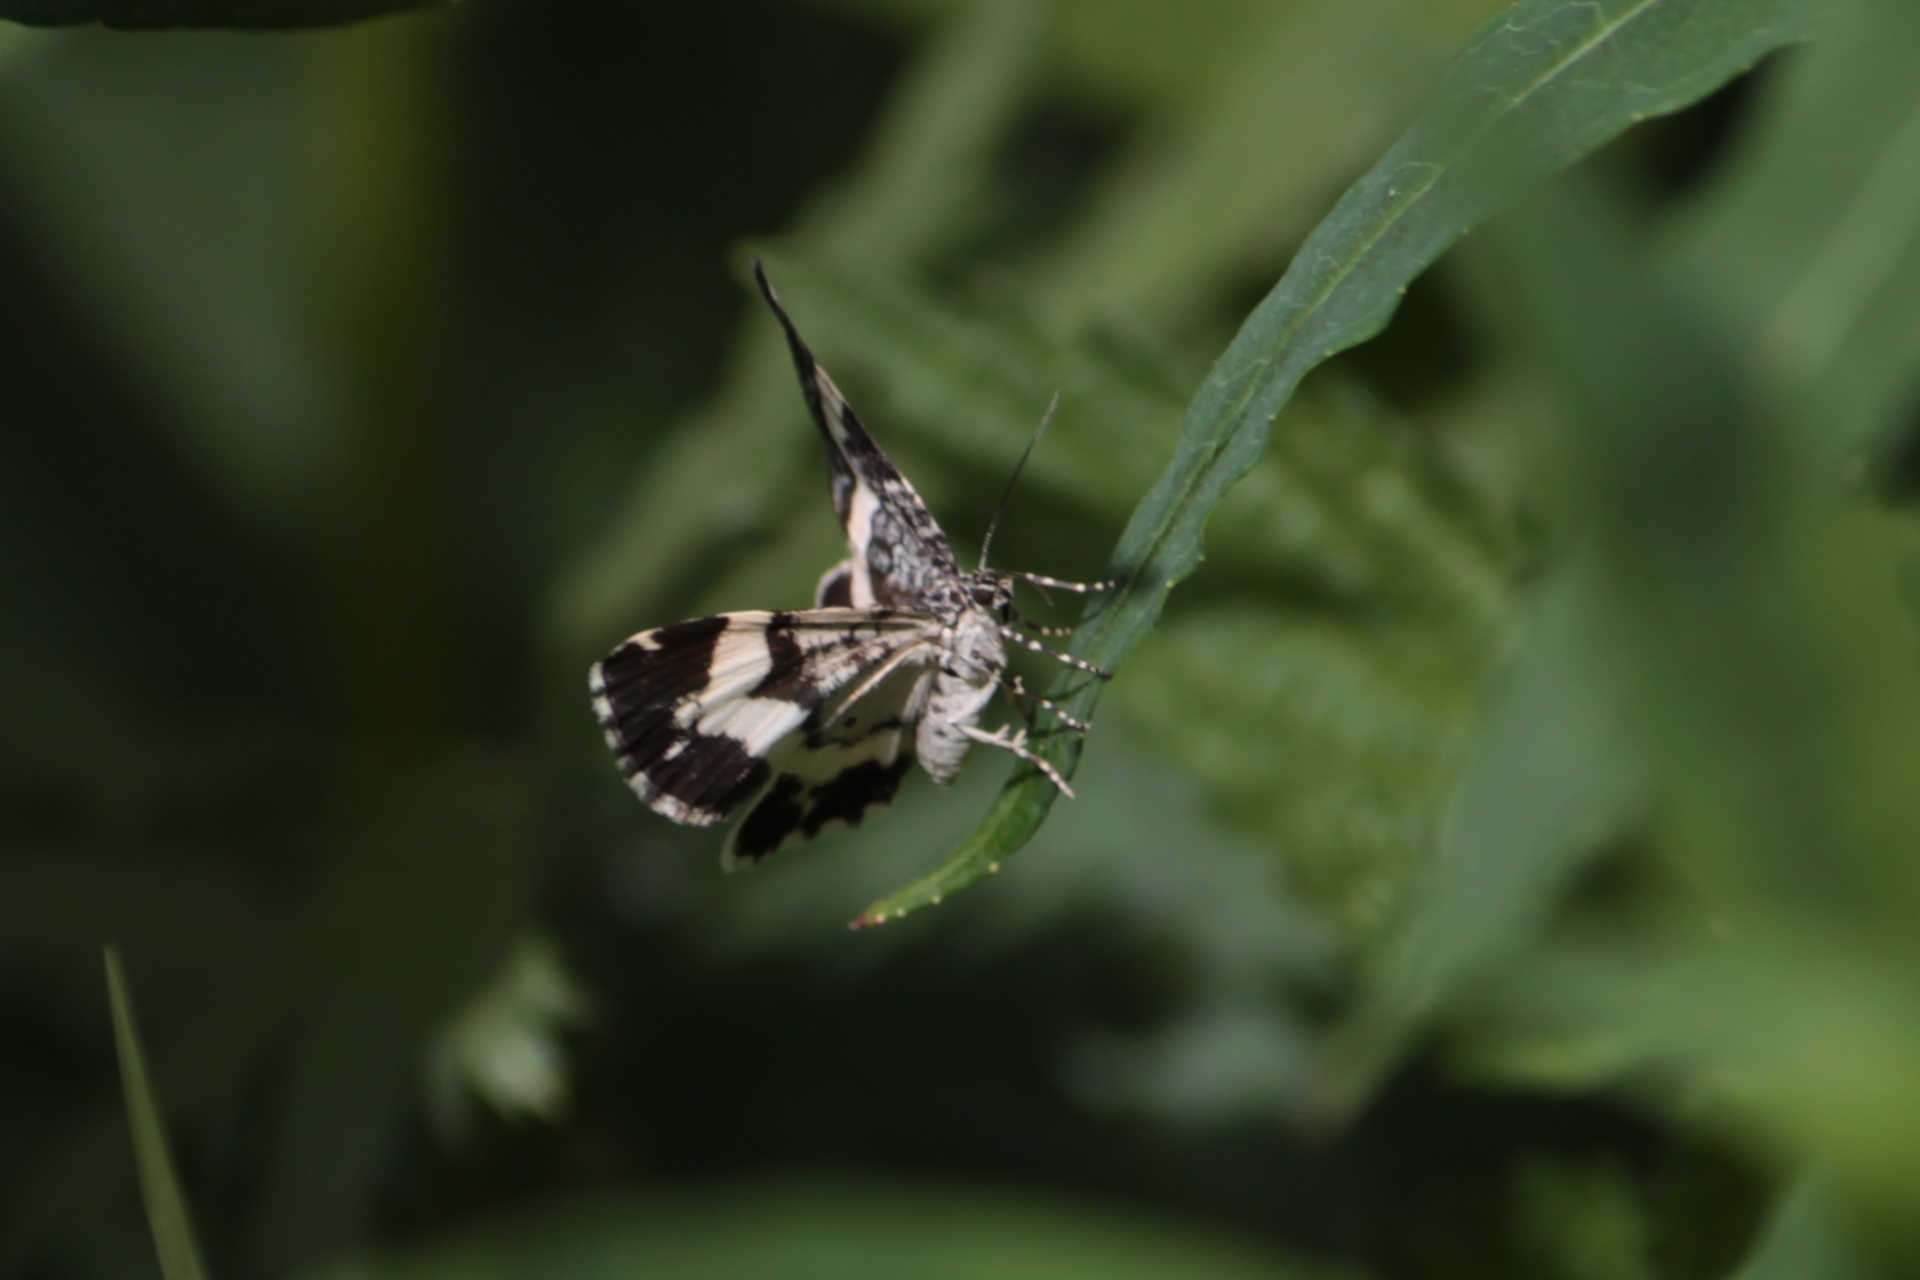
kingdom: Animalia
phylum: Arthropoda
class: Insecta
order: Lepidoptera
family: Geometridae
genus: Spargania
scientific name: Spargania luctuata
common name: White-banded carpet
